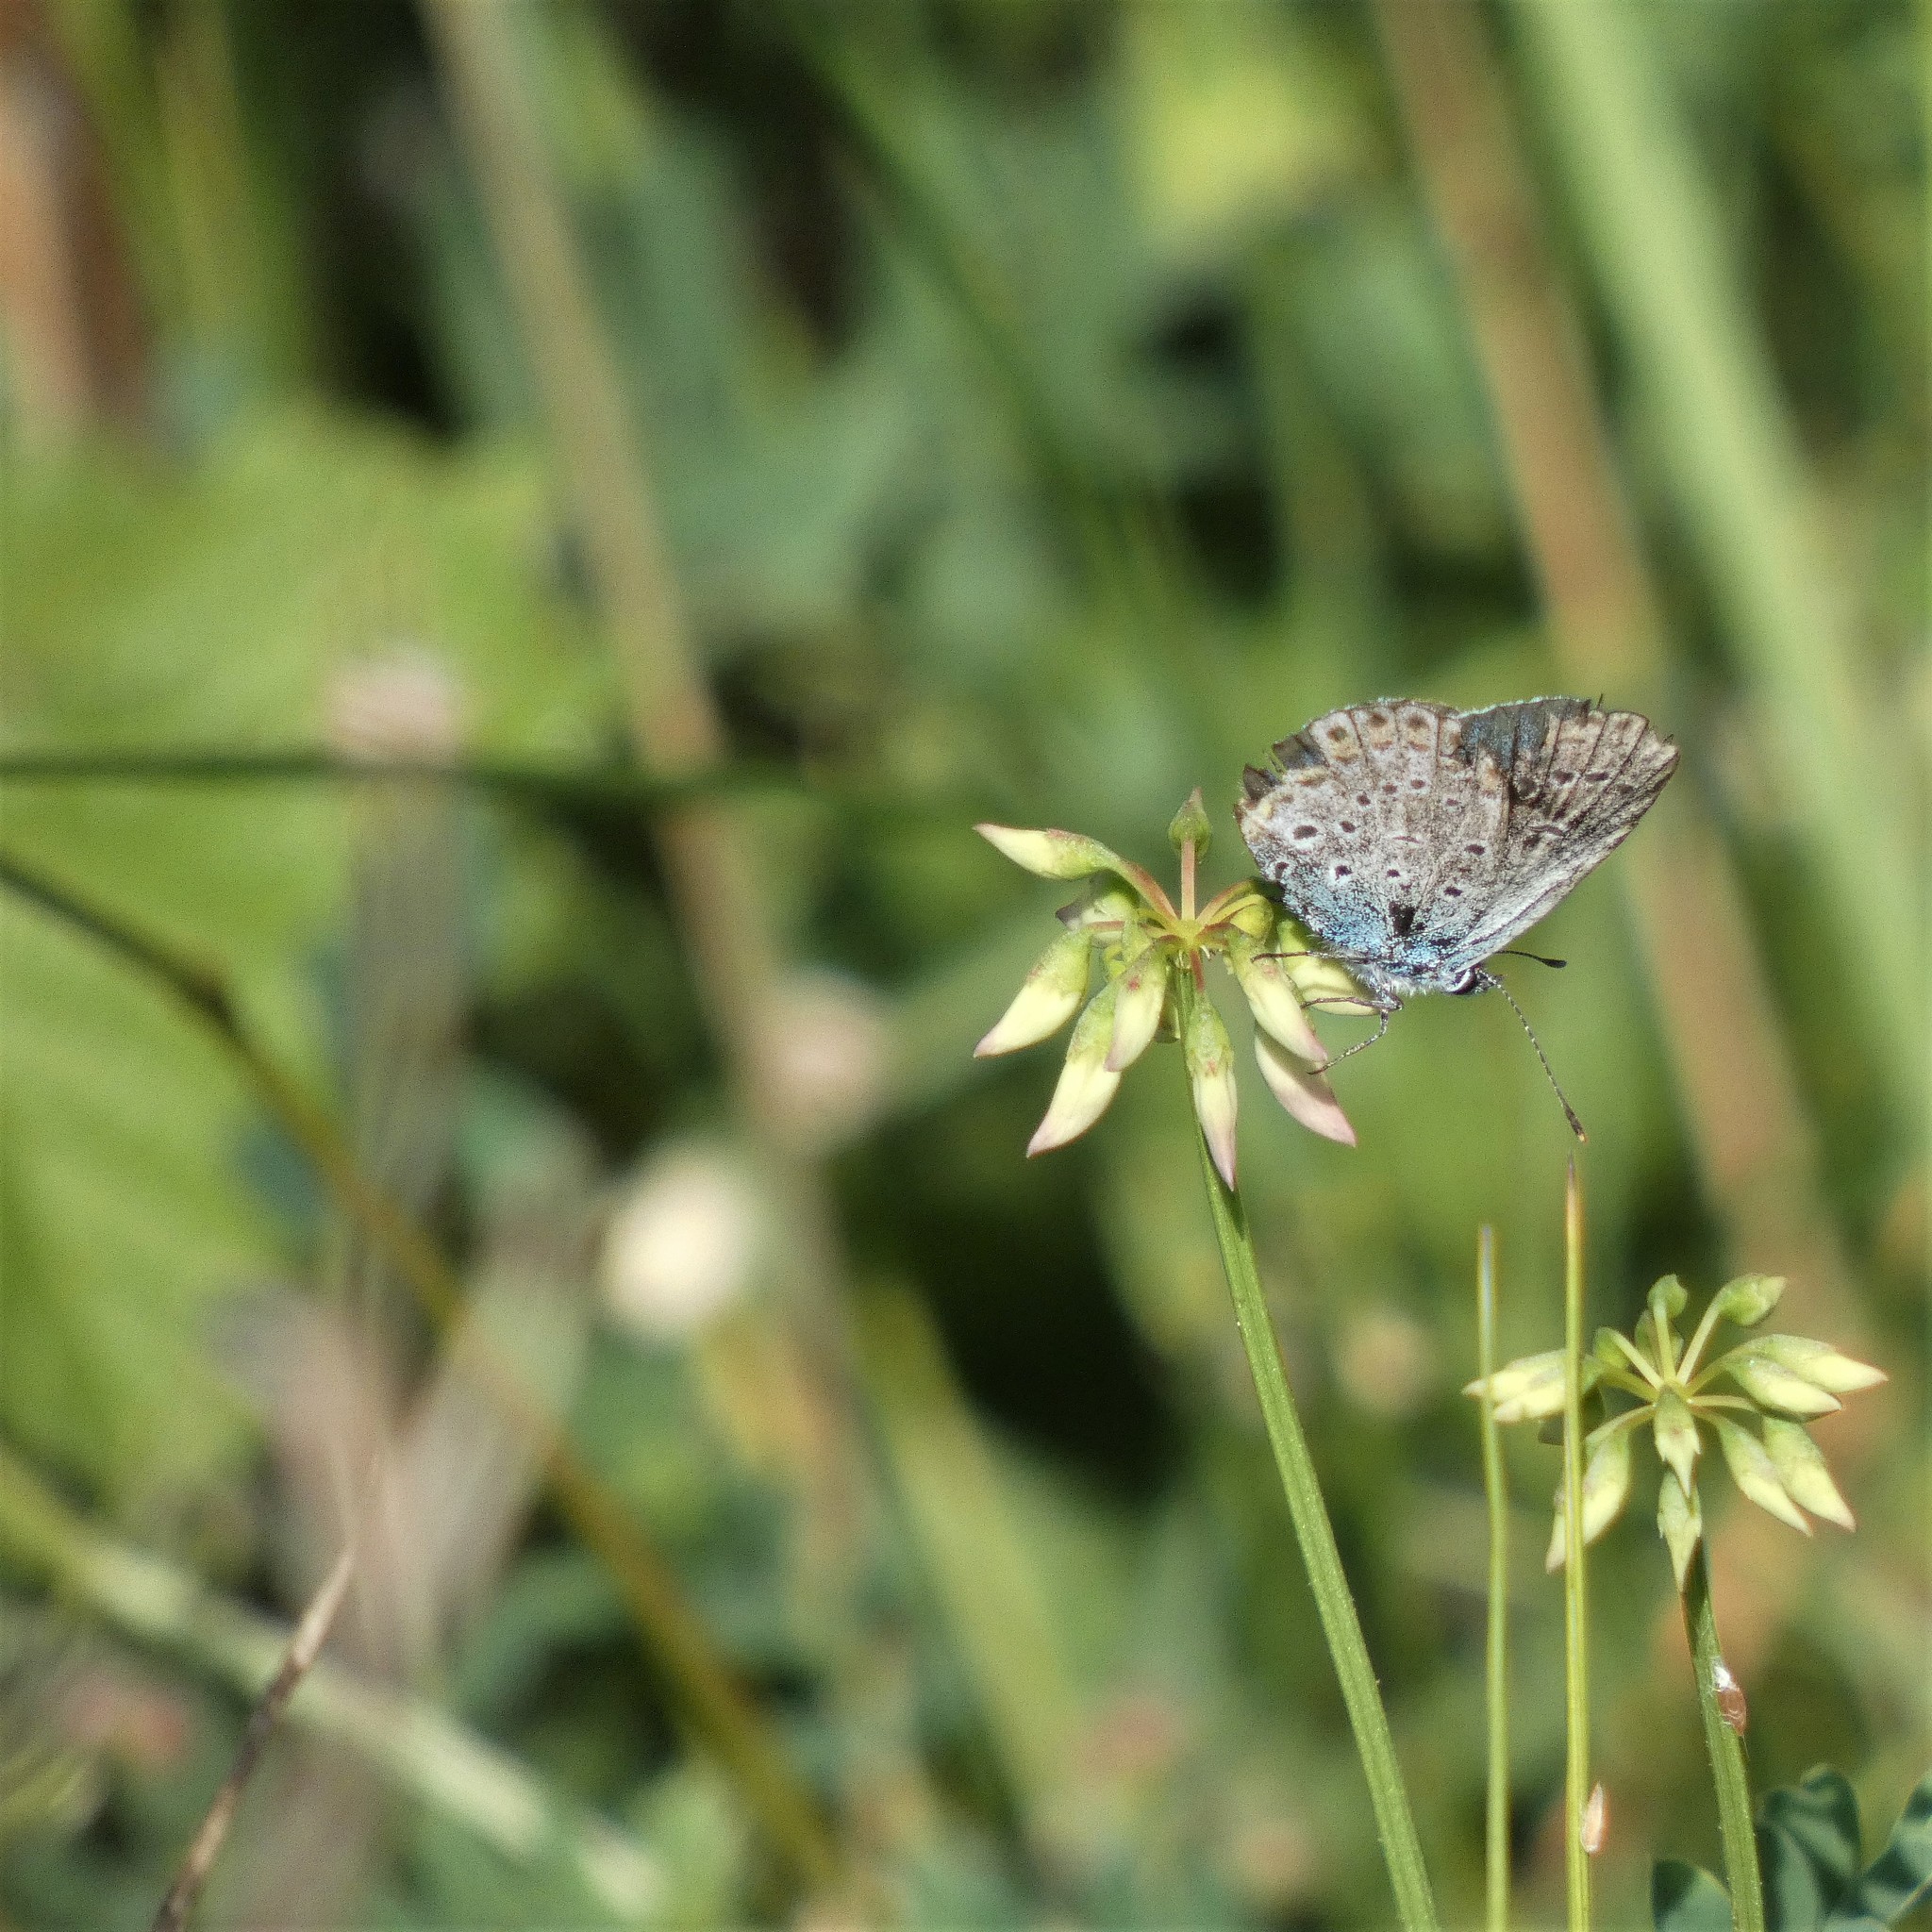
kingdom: Animalia
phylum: Arthropoda
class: Insecta
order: Lepidoptera
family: Lycaenidae
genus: Plebejus
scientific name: Plebejus argyrognomon
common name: Reverdin's blue
